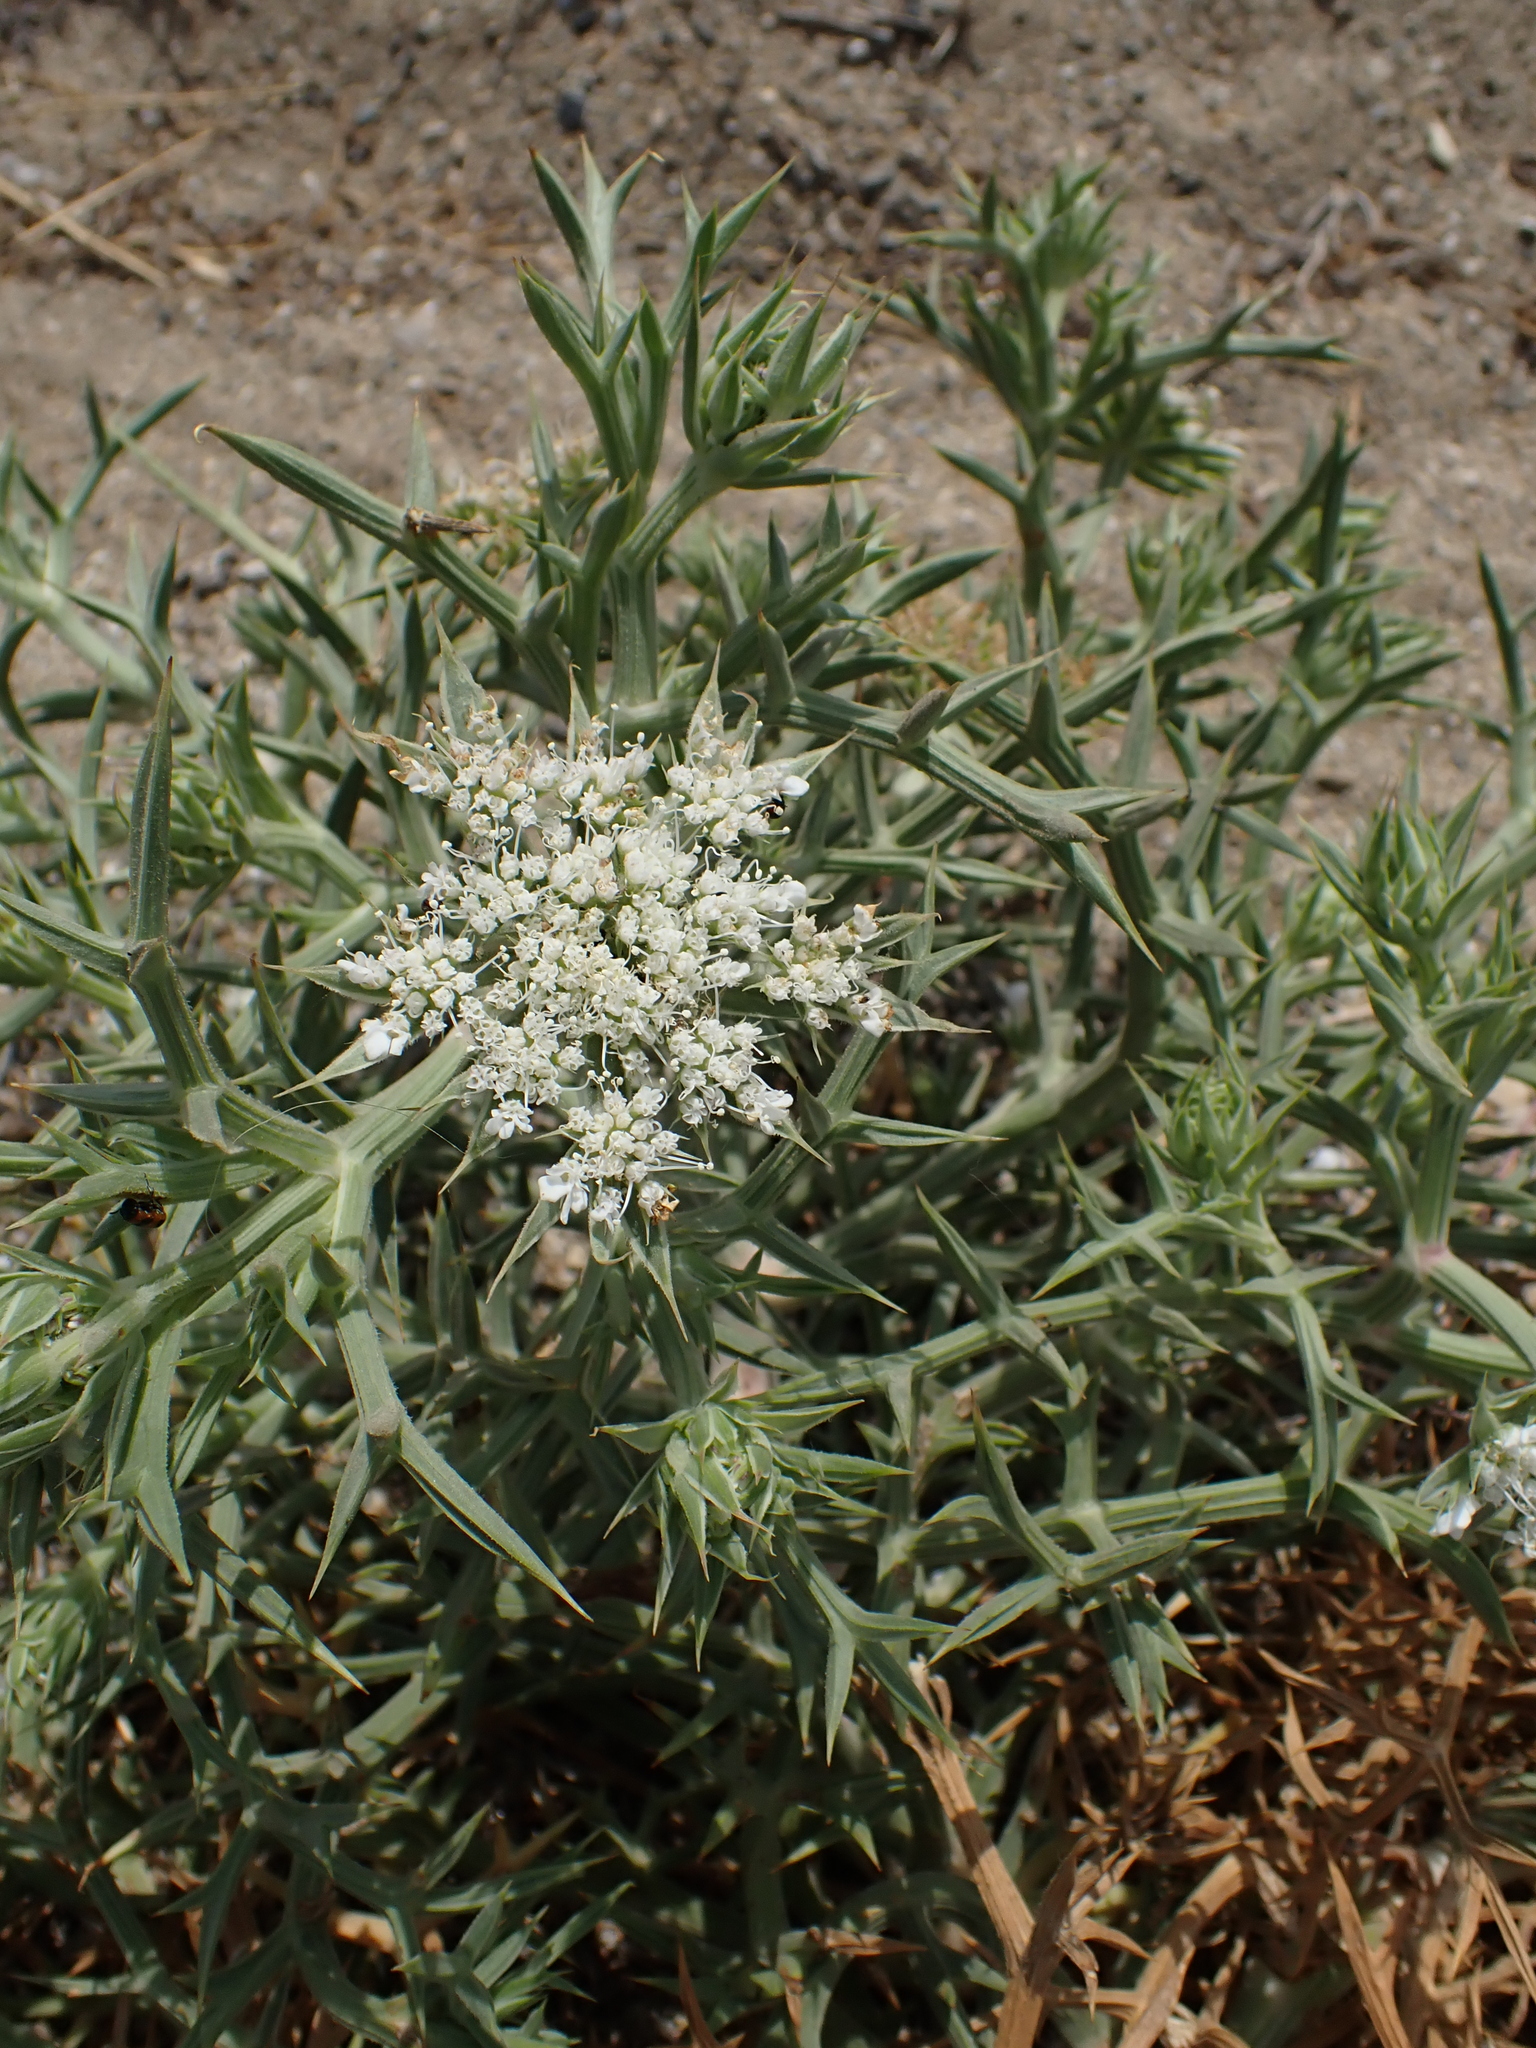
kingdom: Plantae
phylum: Tracheophyta
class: Magnoliopsida
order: Apiales
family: Apiaceae
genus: Echinophora
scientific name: Echinophora spinosa
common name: Prickly samphire
